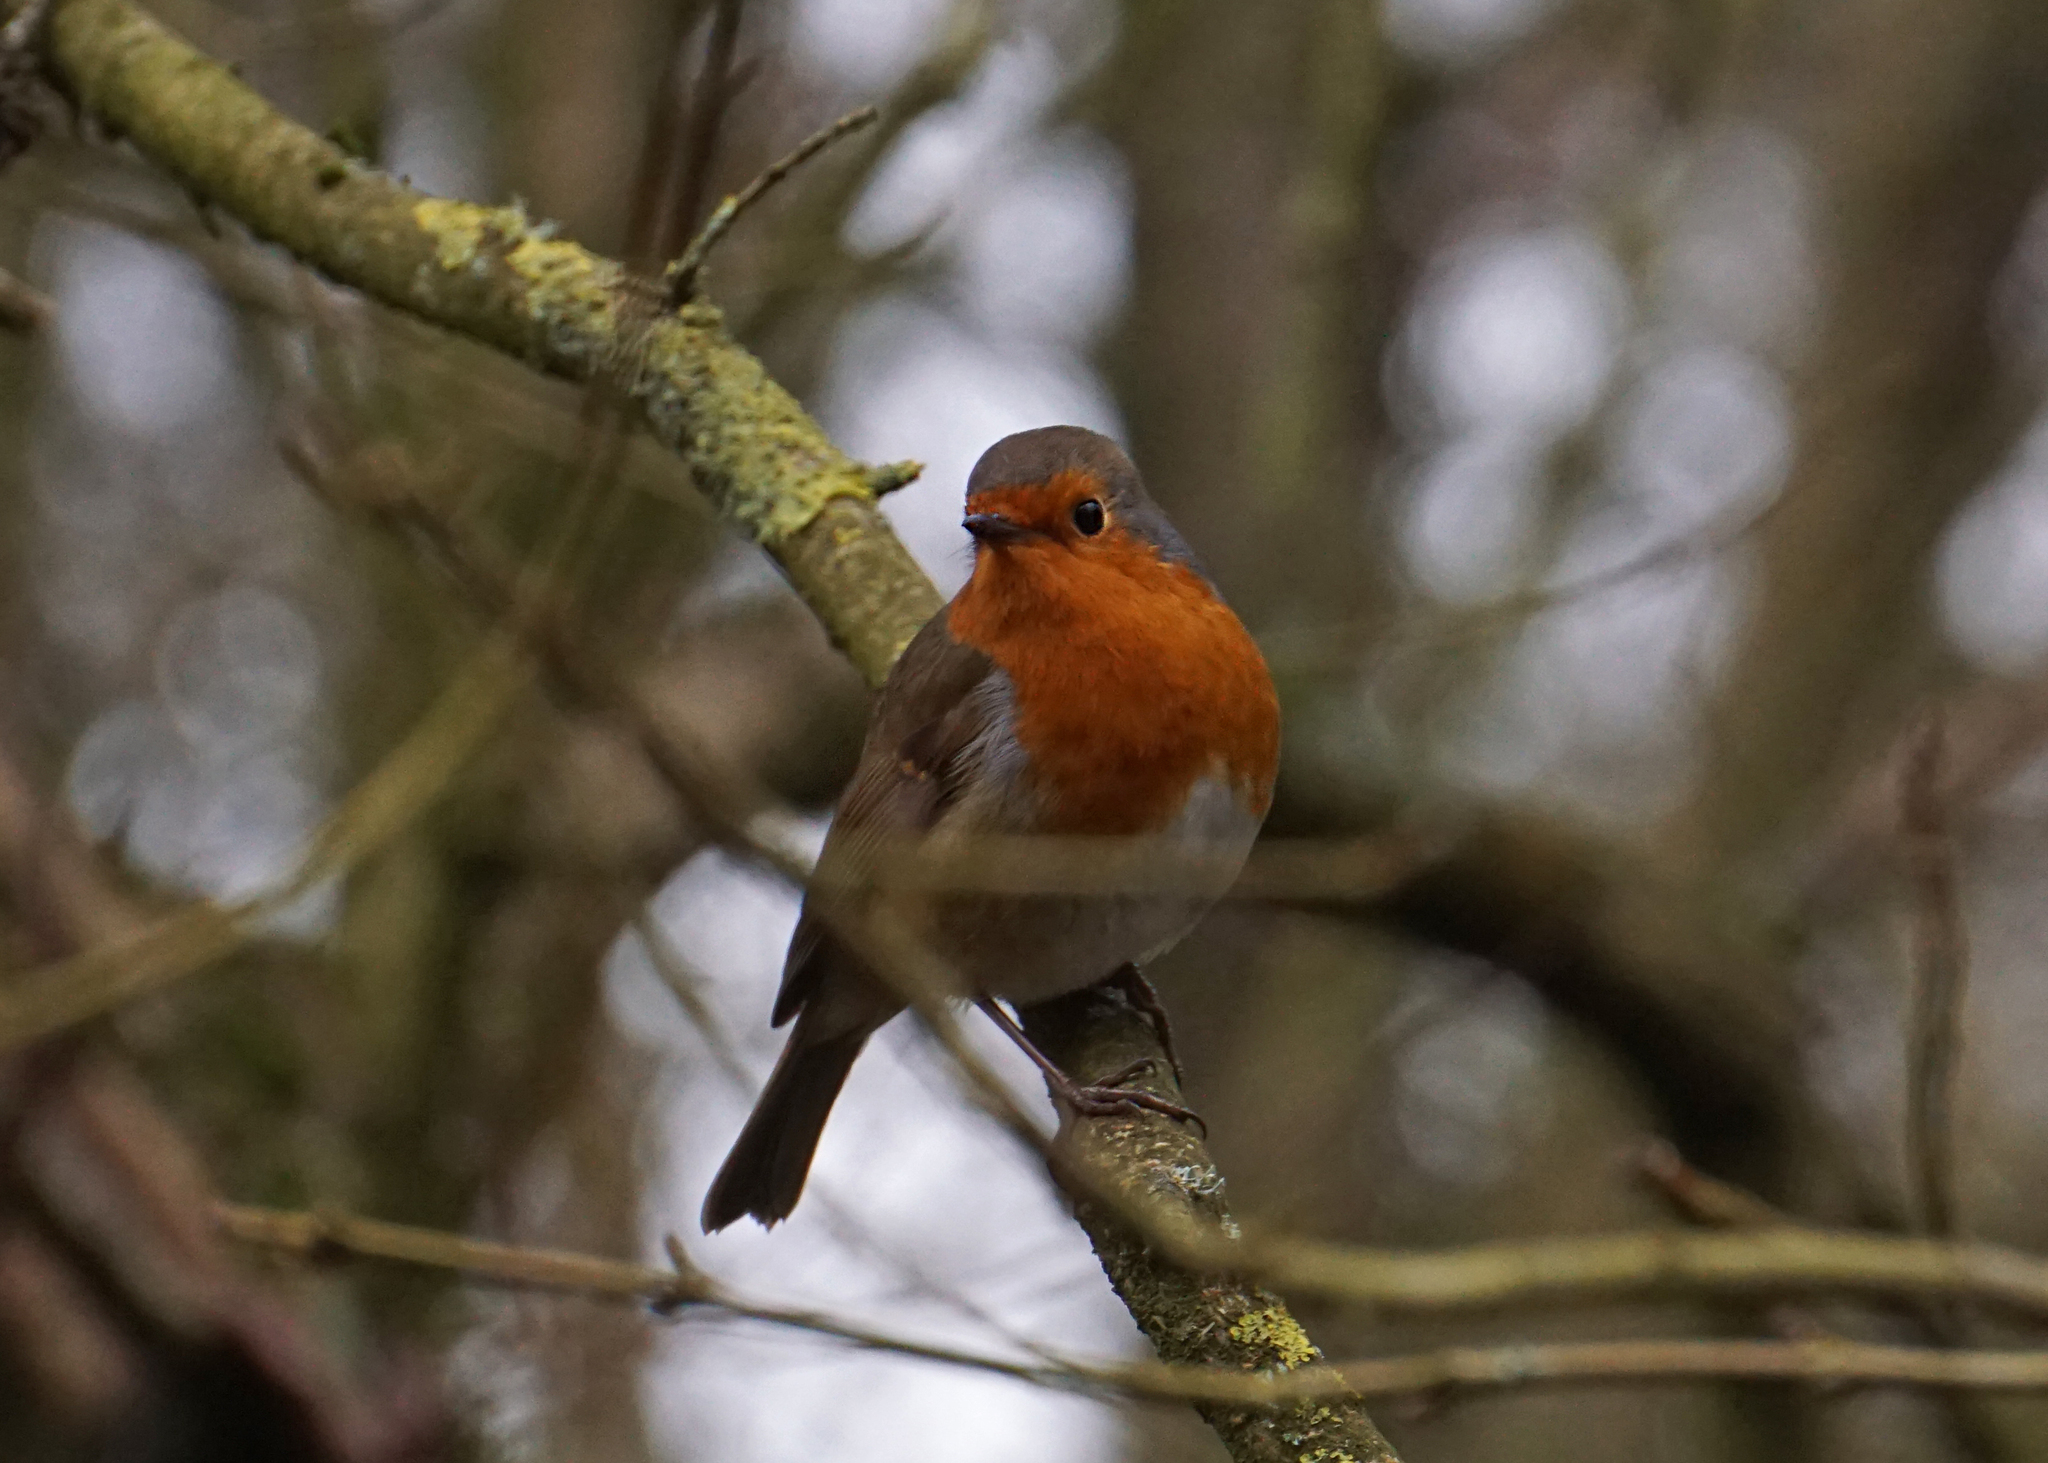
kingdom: Animalia
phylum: Chordata
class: Aves
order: Passeriformes
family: Muscicapidae
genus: Erithacus
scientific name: Erithacus rubecula
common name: European robin
